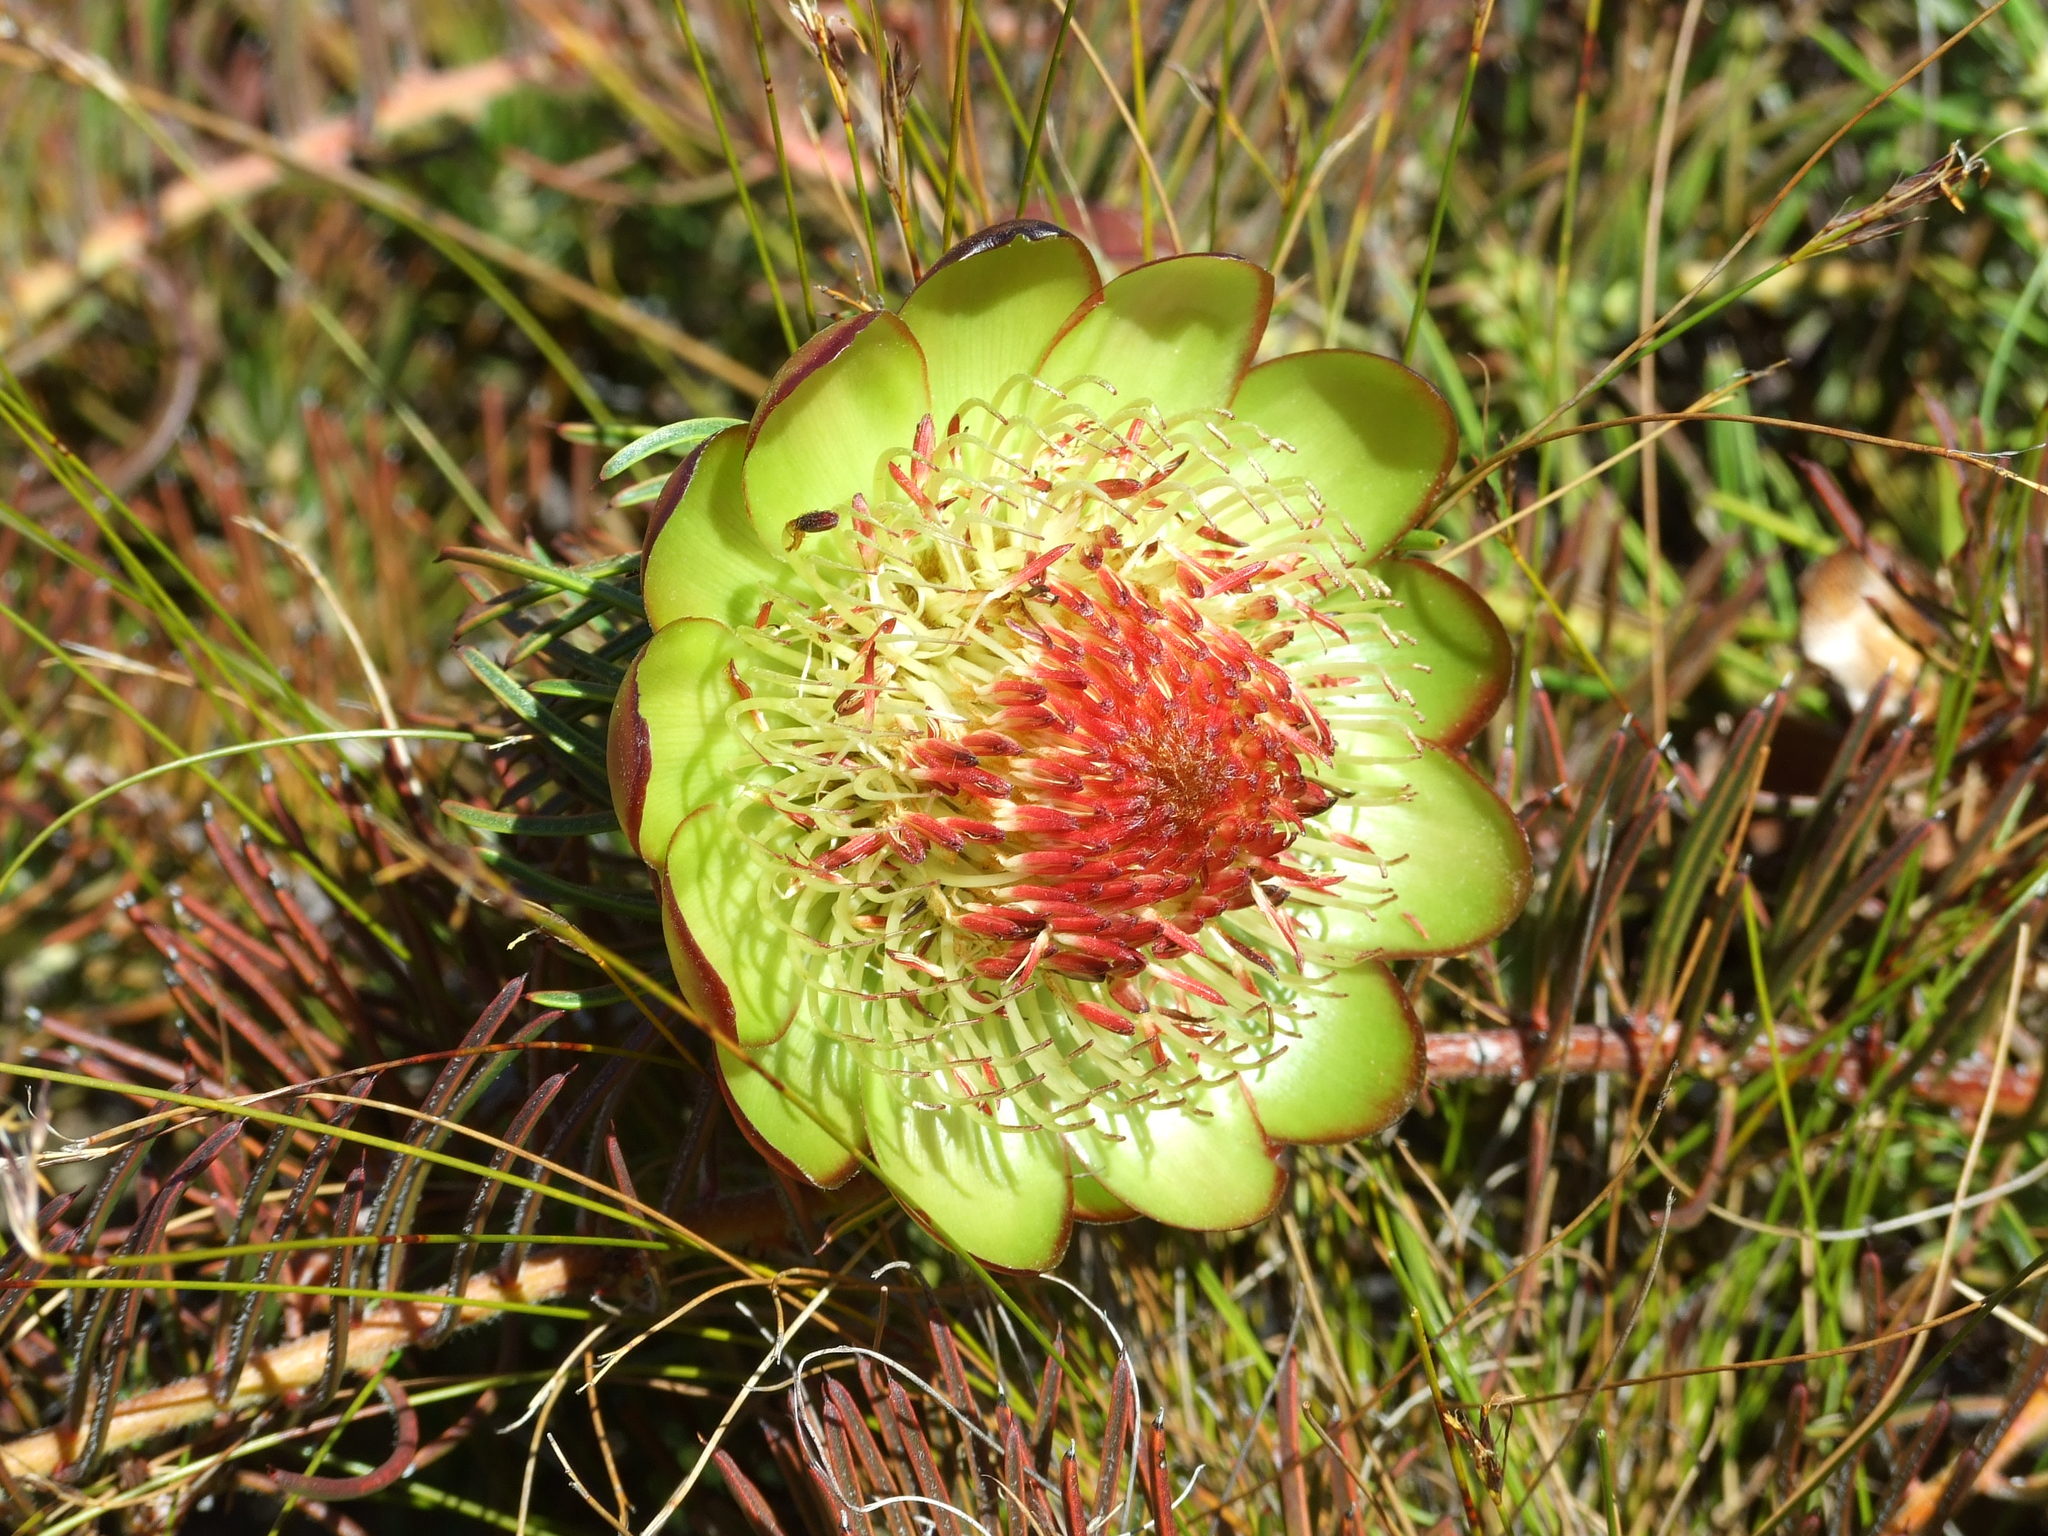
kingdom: Plantae
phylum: Tracheophyta
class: Magnoliopsida
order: Proteales
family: Proteaceae
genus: Protea
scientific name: Protea witzenbergiana
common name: Swan sugarbush
